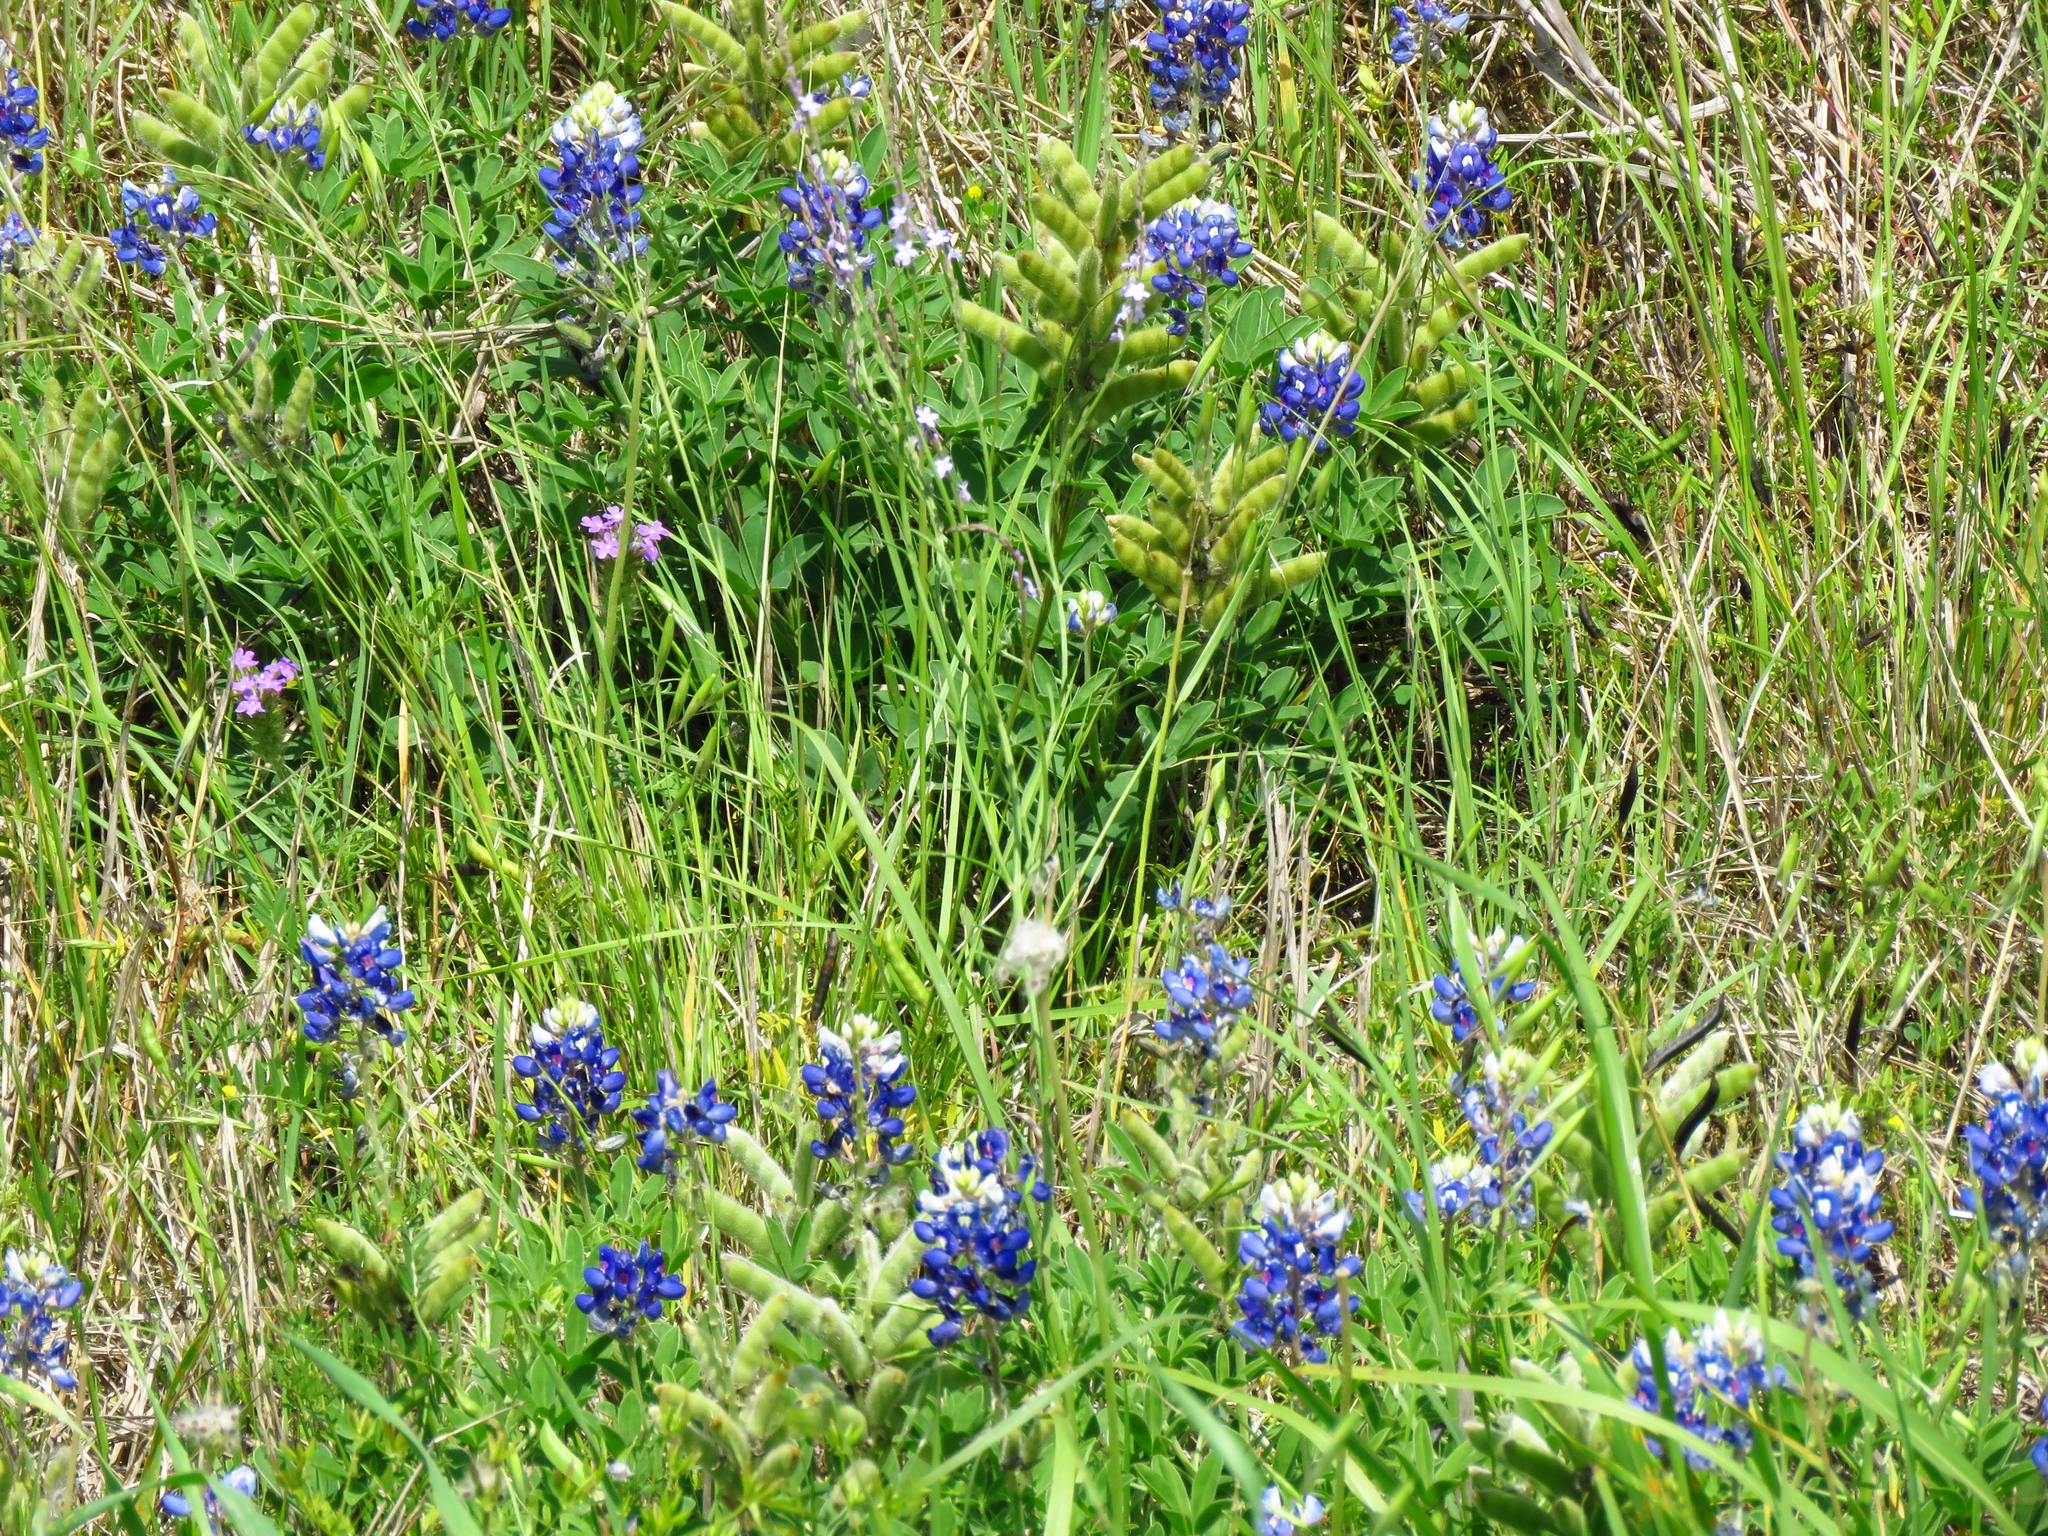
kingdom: Plantae
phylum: Tracheophyta
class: Magnoliopsida
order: Fabales
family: Fabaceae
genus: Lupinus
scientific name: Lupinus texensis
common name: Texas bluebonnet
